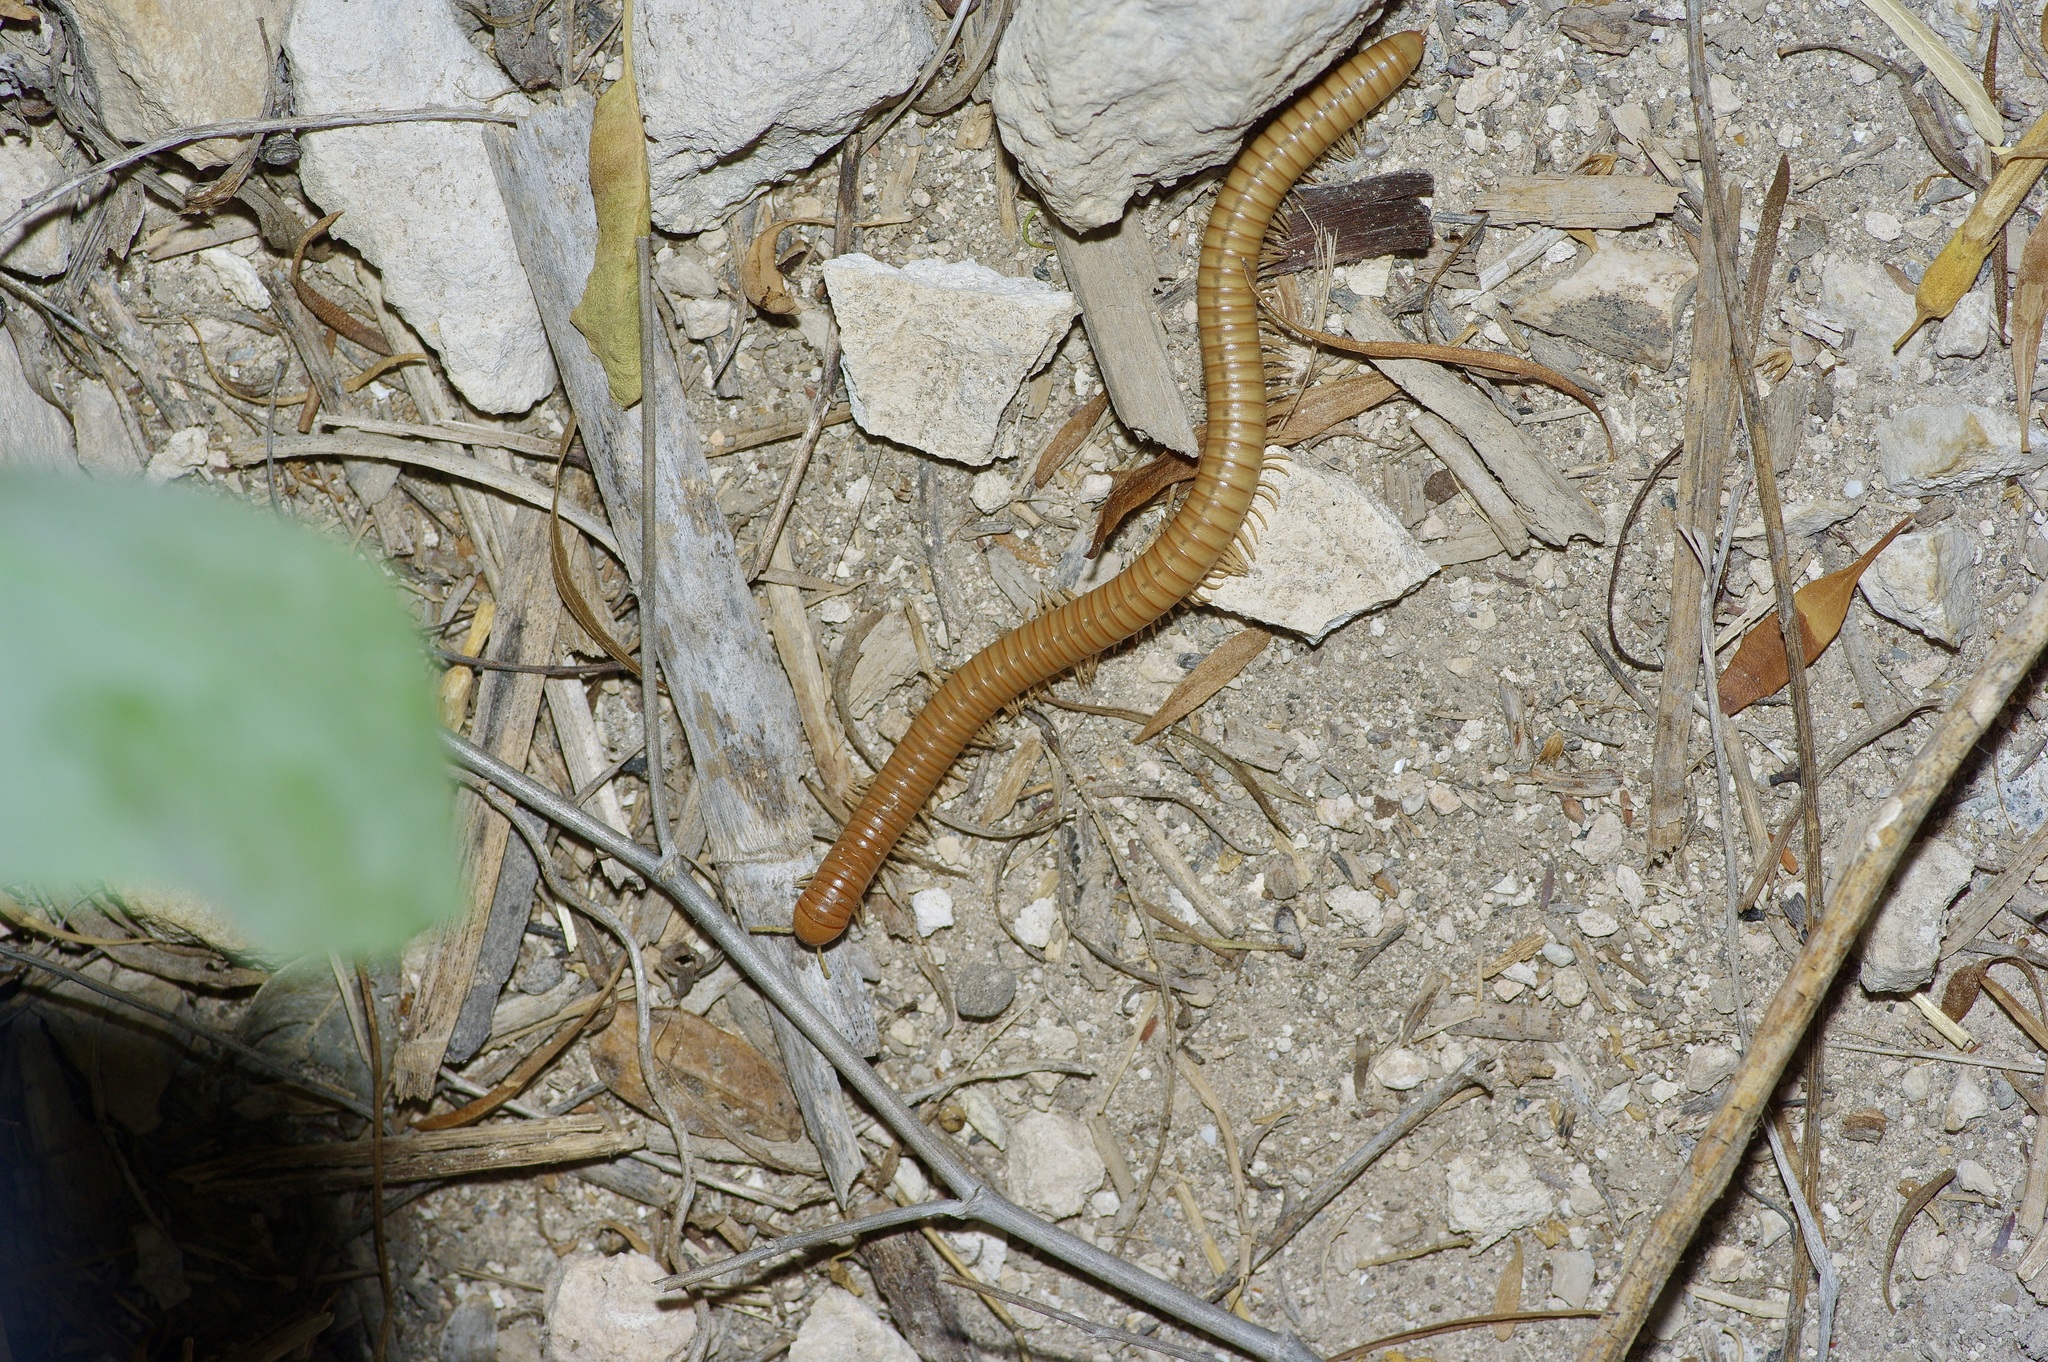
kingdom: Animalia
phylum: Arthropoda
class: Diplopoda
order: Spirostreptida
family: Spirostreptidae
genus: Orthoporus
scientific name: Orthoporus flavior
